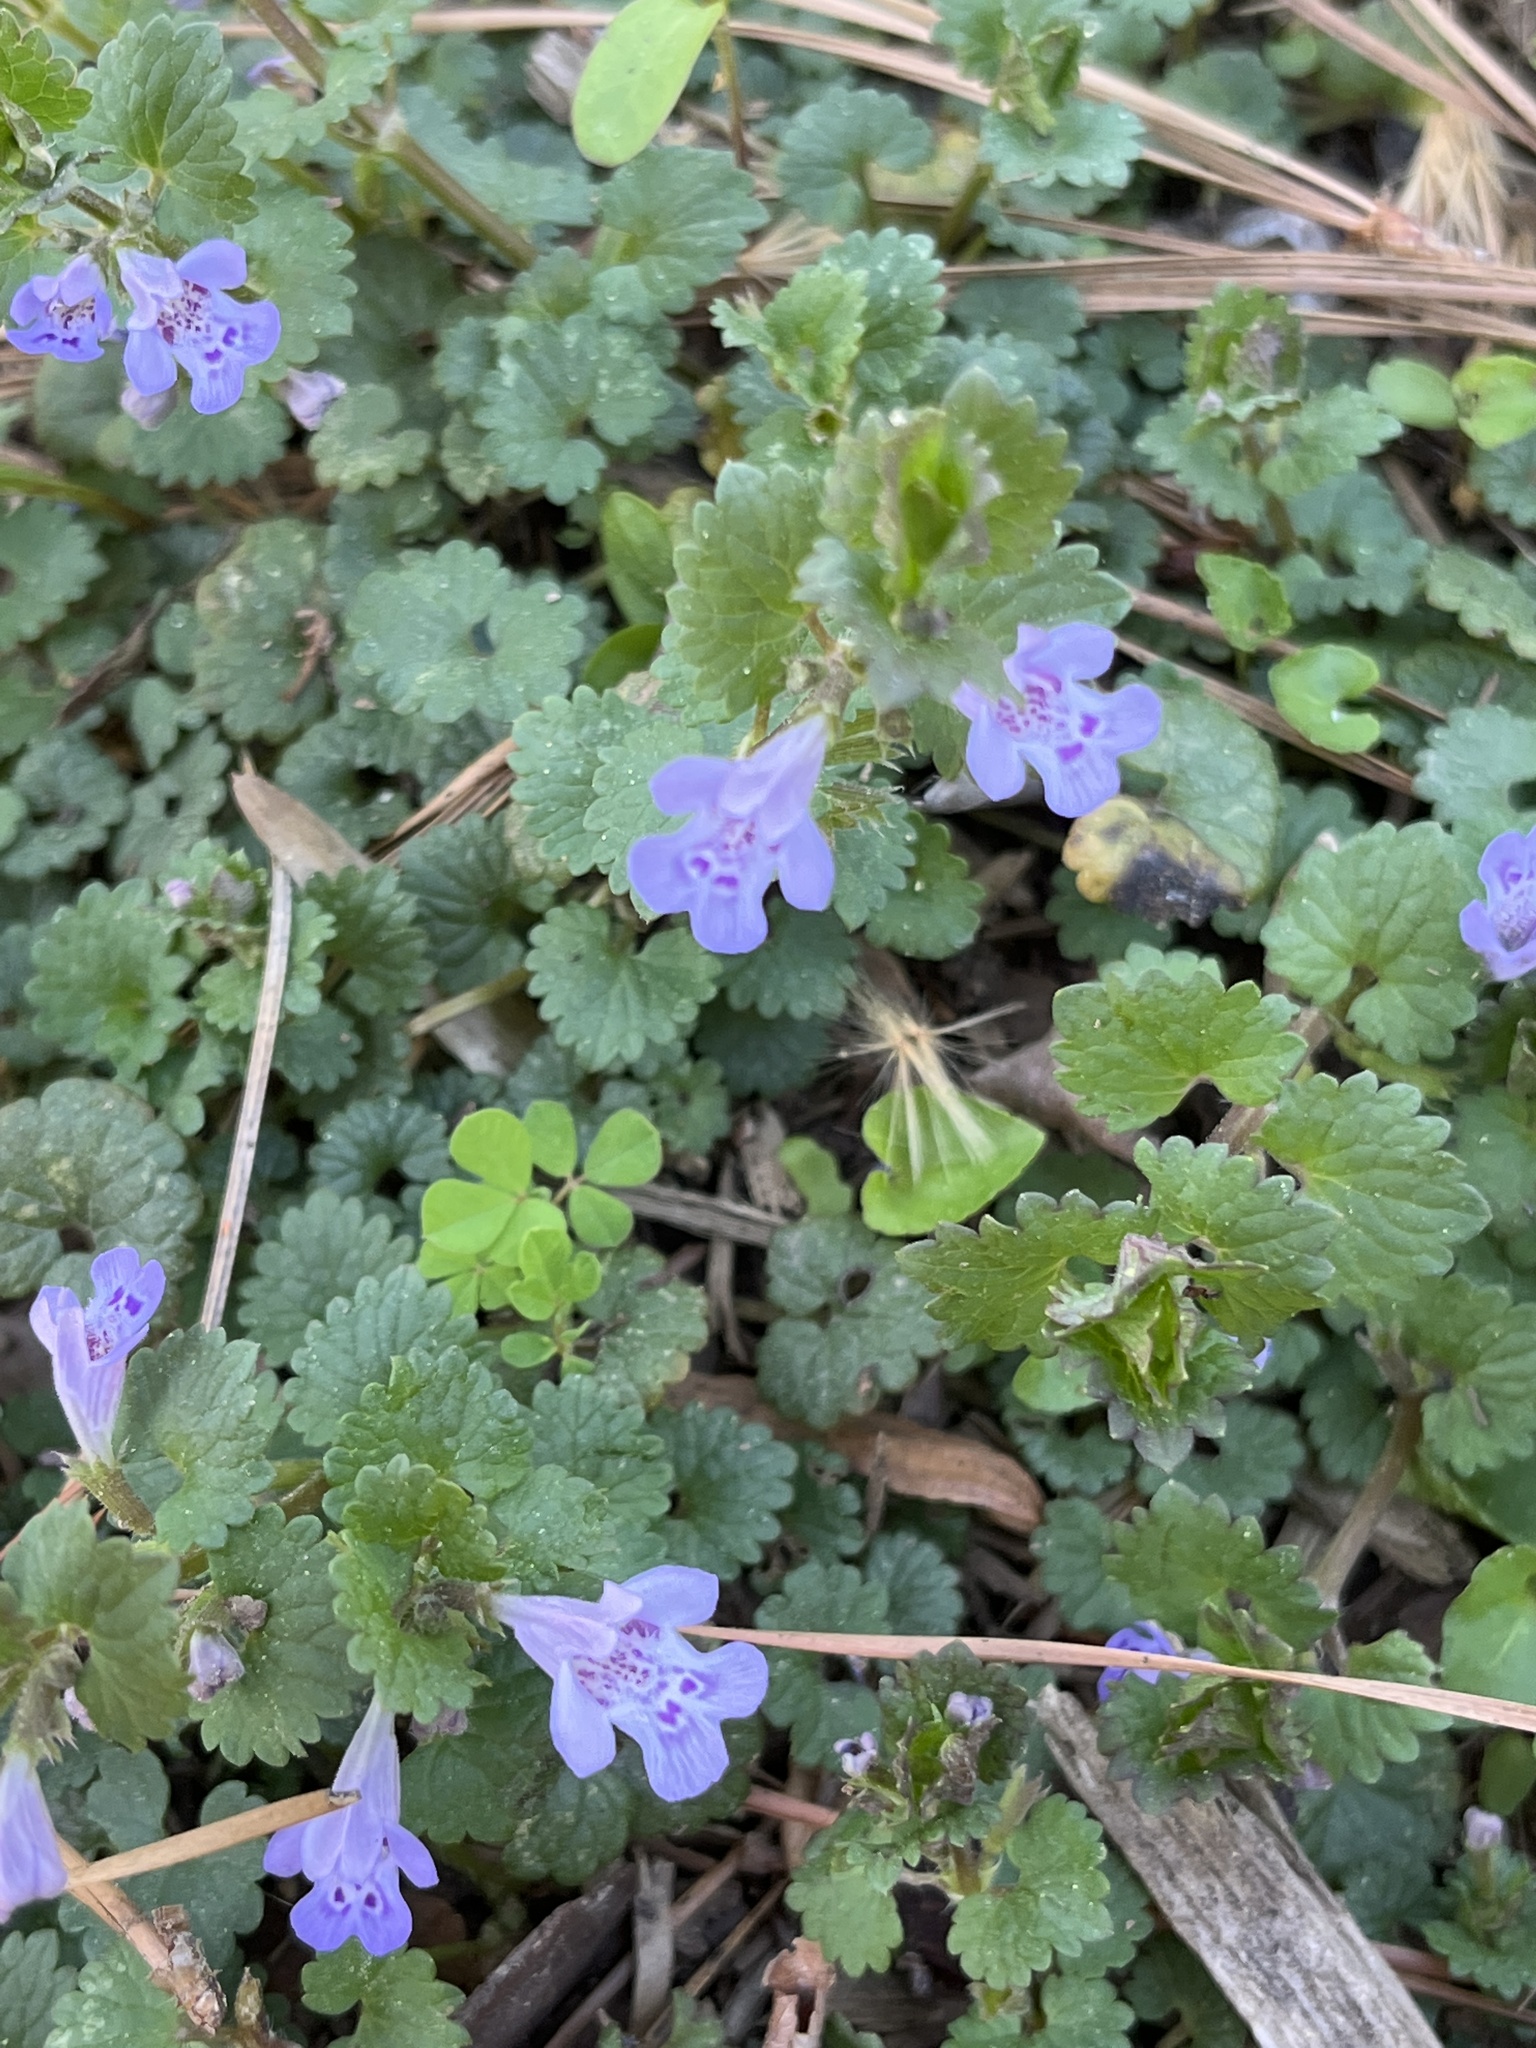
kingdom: Plantae
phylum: Tracheophyta
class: Magnoliopsida
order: Lamiales
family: Lamiaceae
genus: Glechoma
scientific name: Glechoma hederacea
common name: Ground ivy
